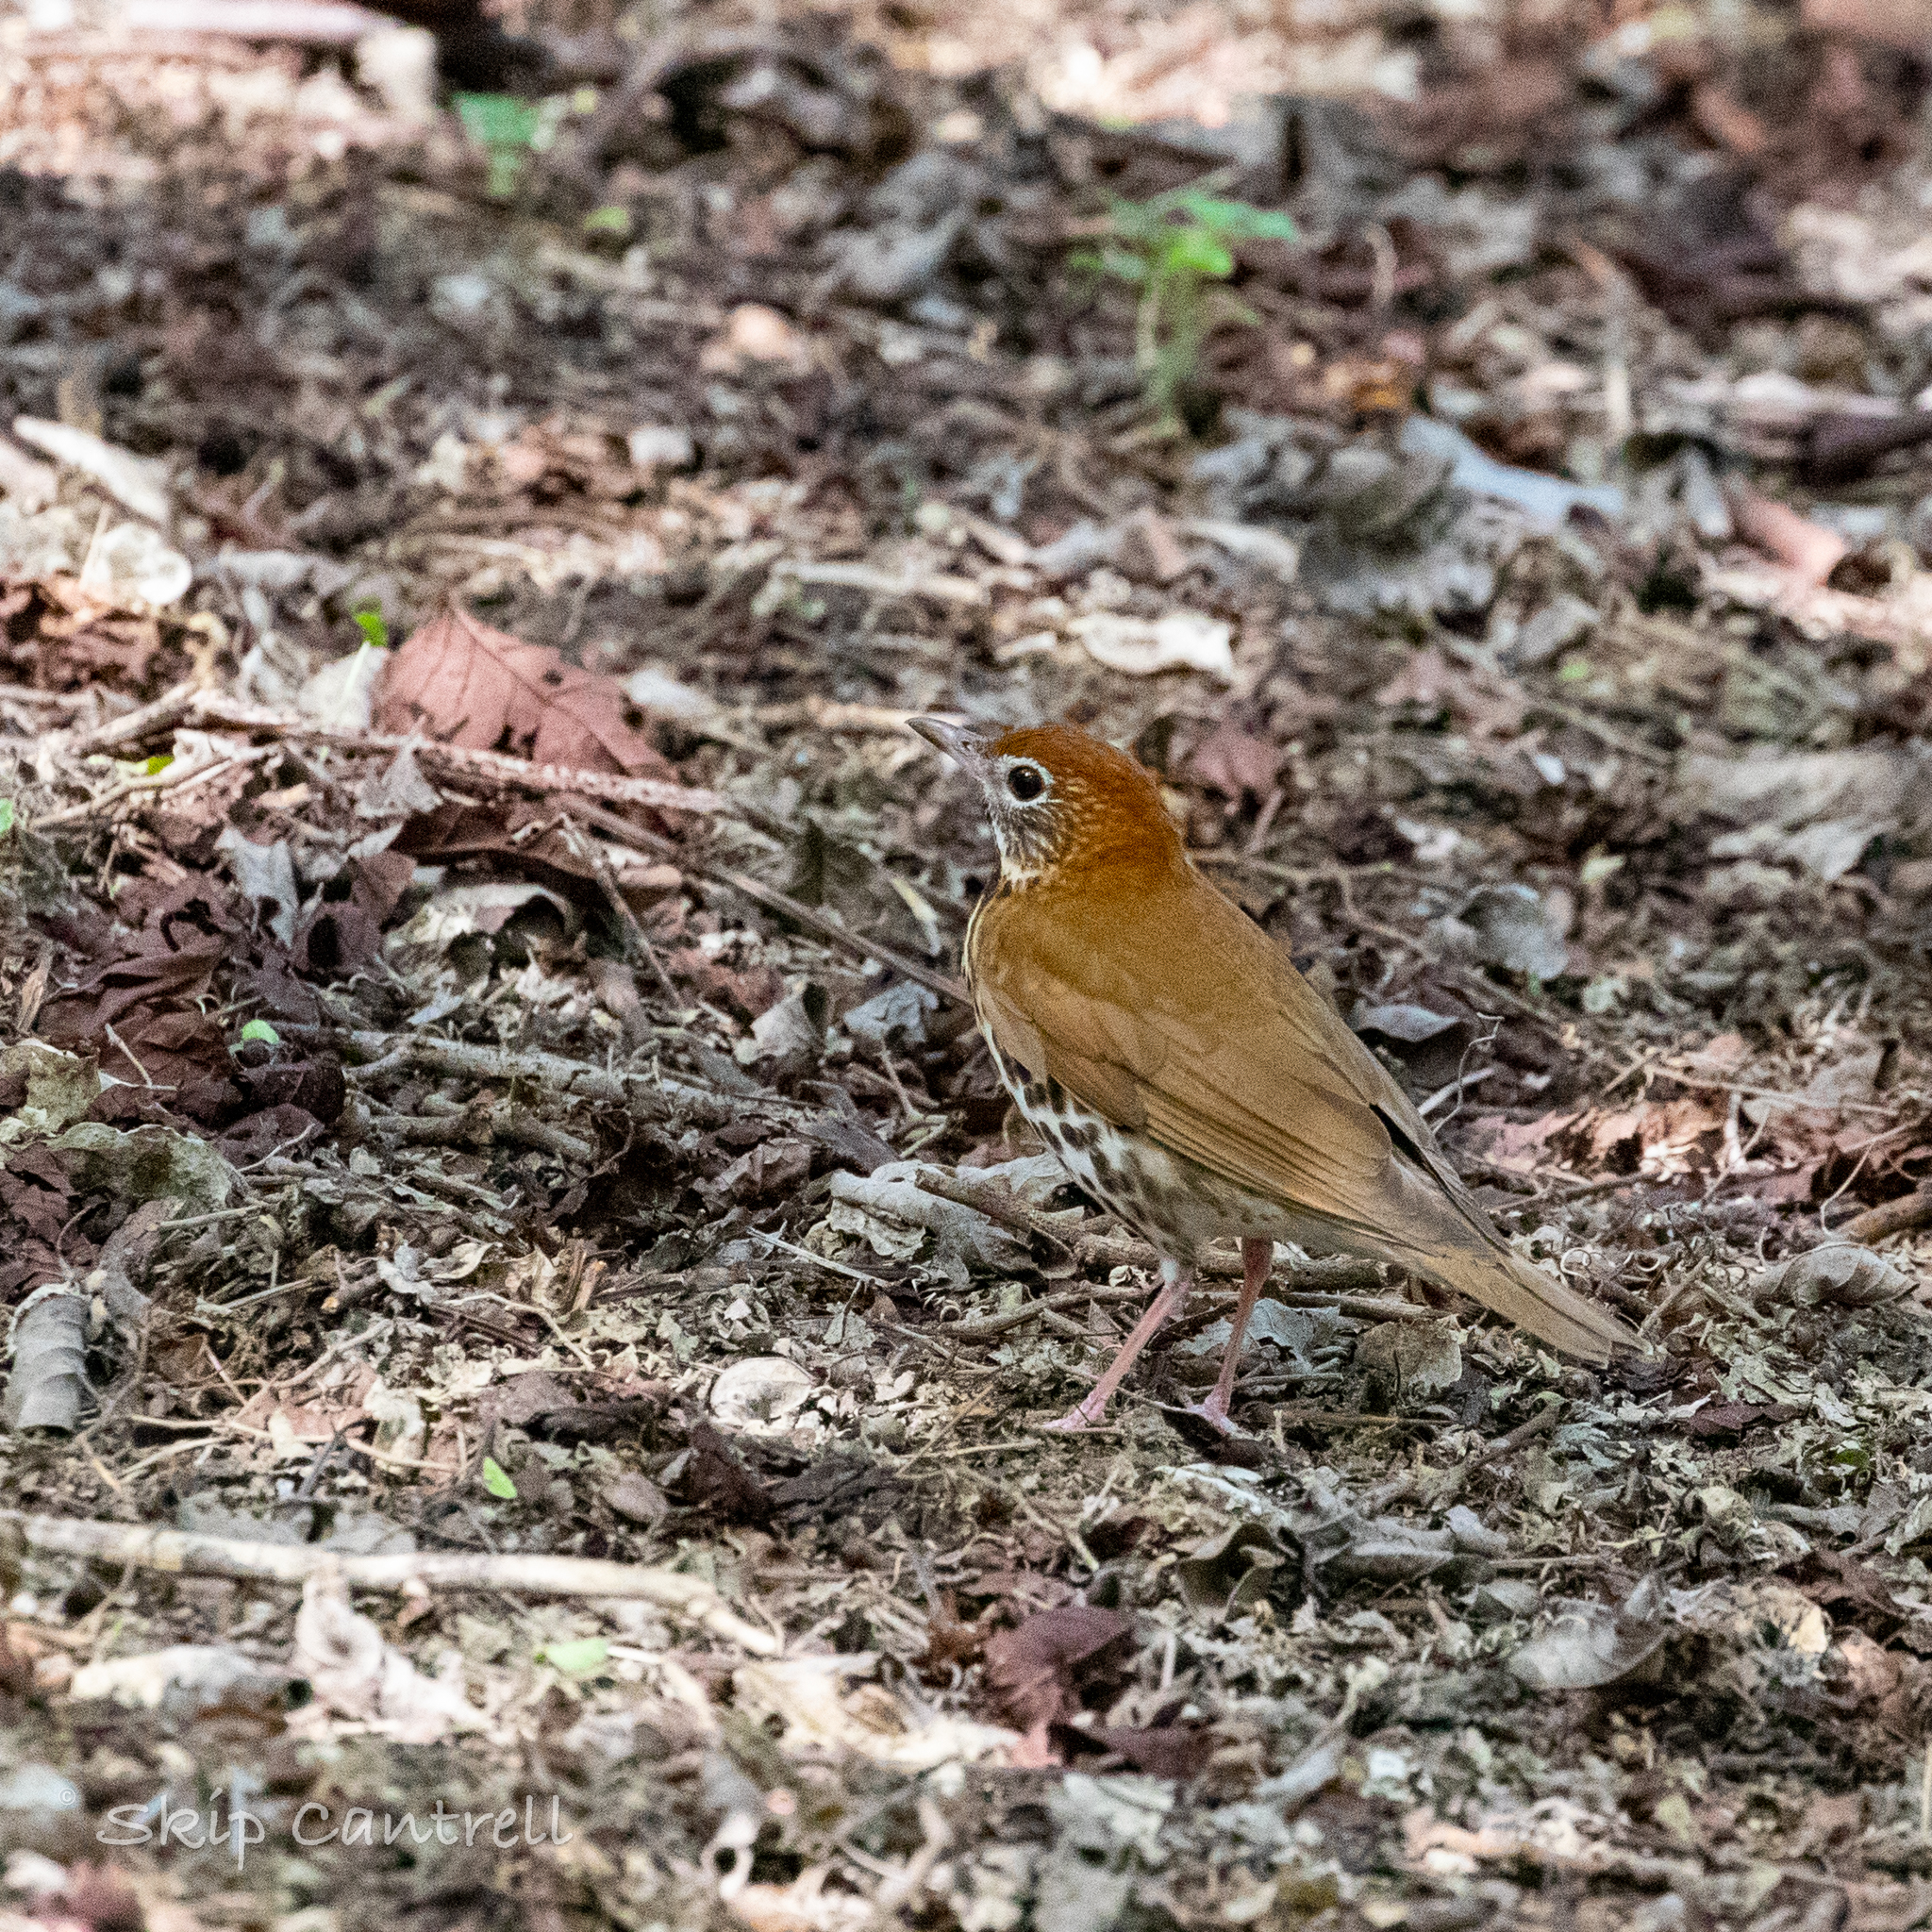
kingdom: Animalia
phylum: Chordata
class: Aves
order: Passeriformes
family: Turdidae
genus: Hylocichla
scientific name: Hylocichla mustelina
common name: Wood thrush
